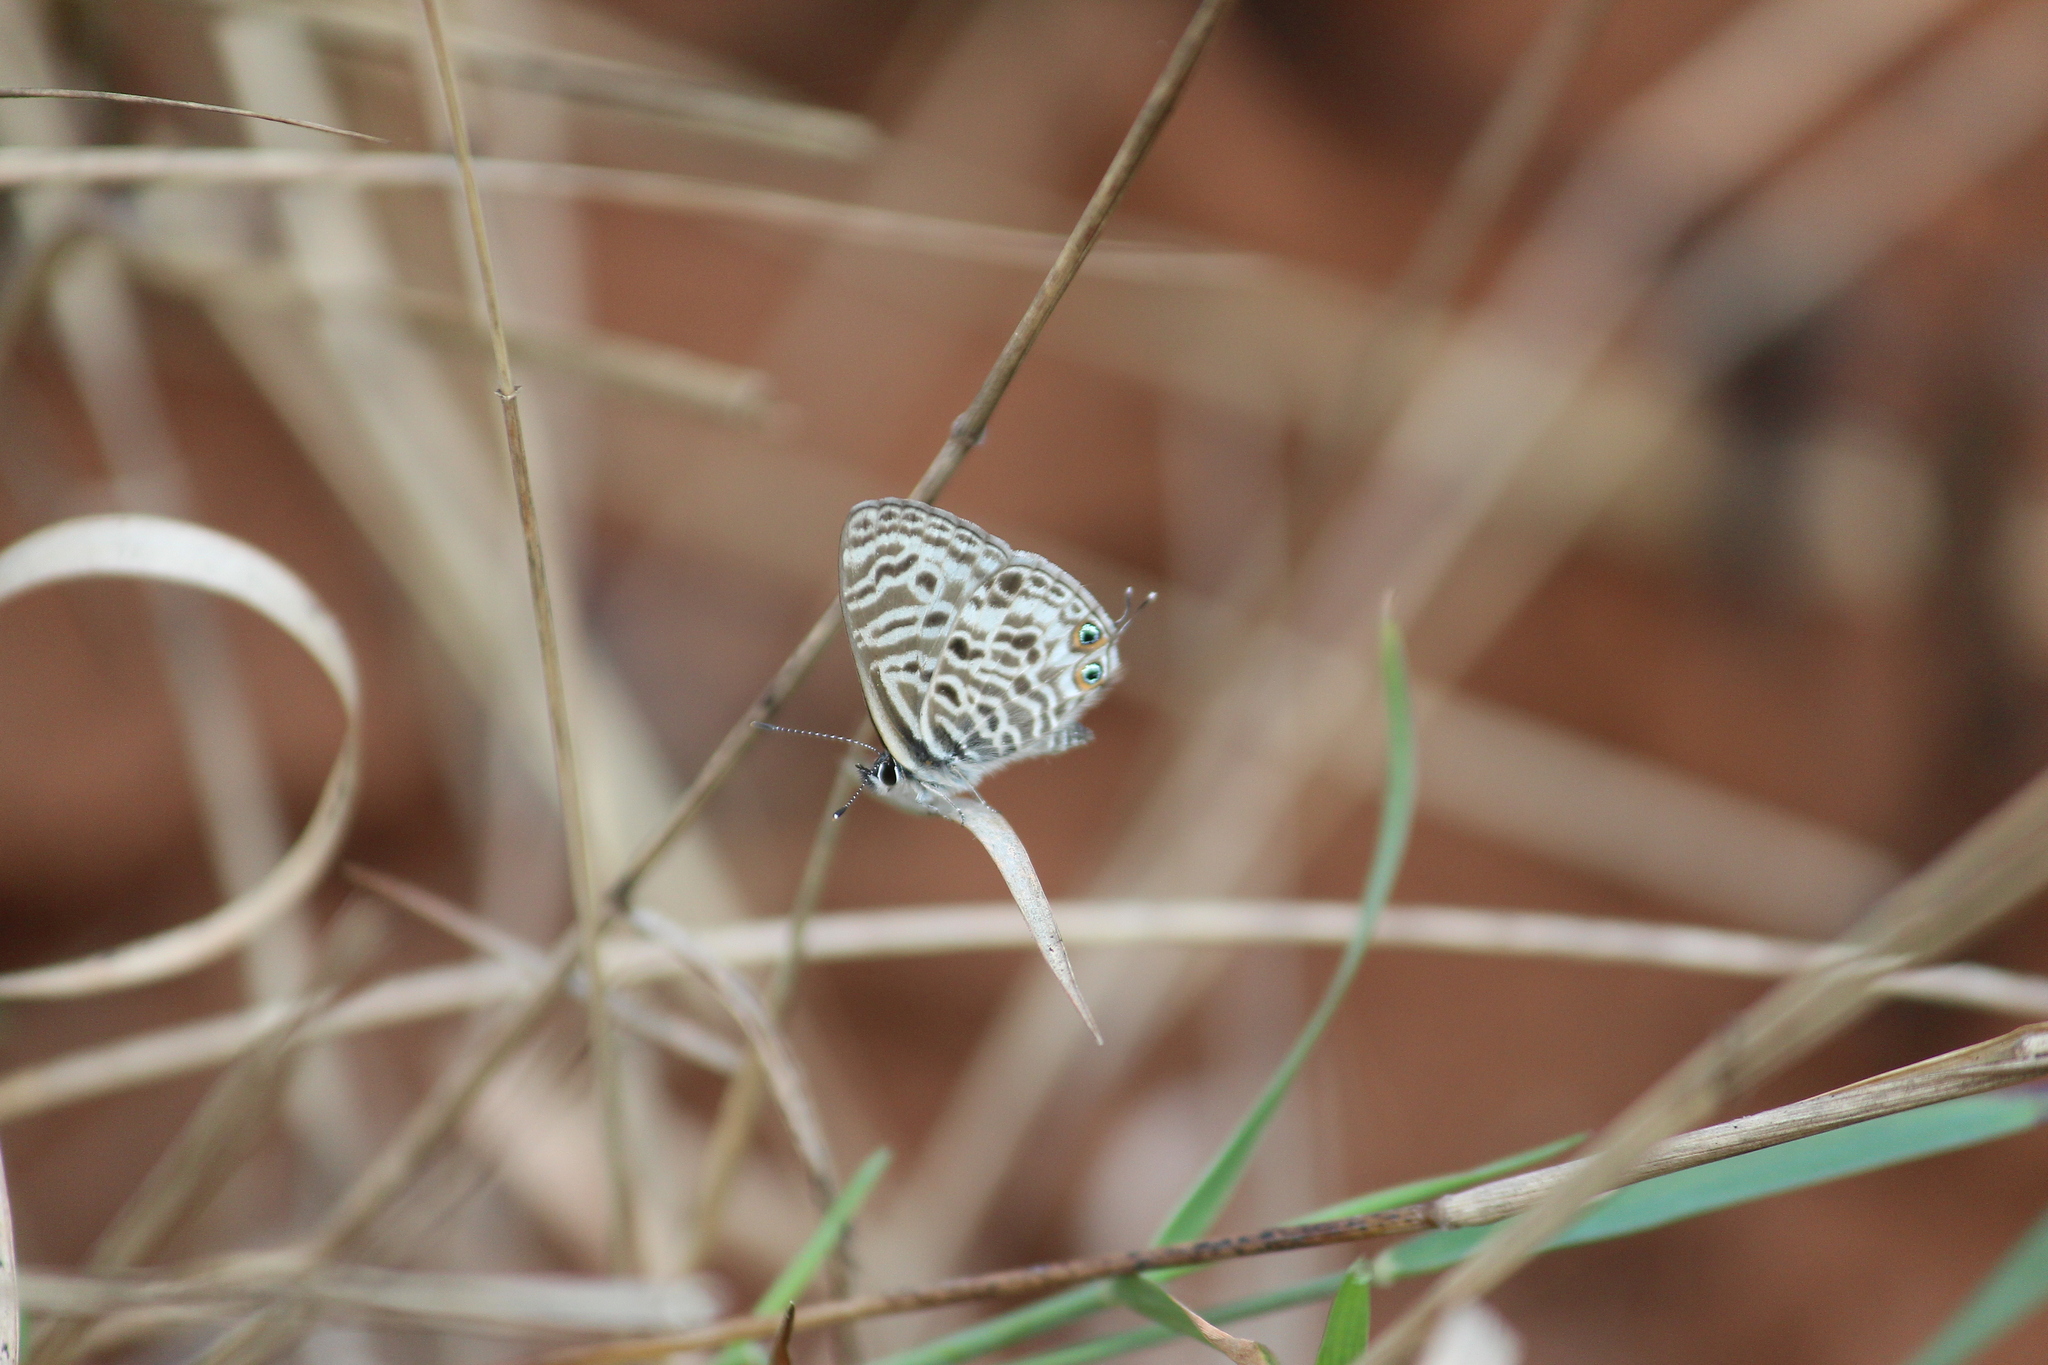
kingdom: Animalia
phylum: Arthropoda
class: Insecta
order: Lepidoptera
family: Lycaenidae
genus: Leptotes
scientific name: Leptotes
